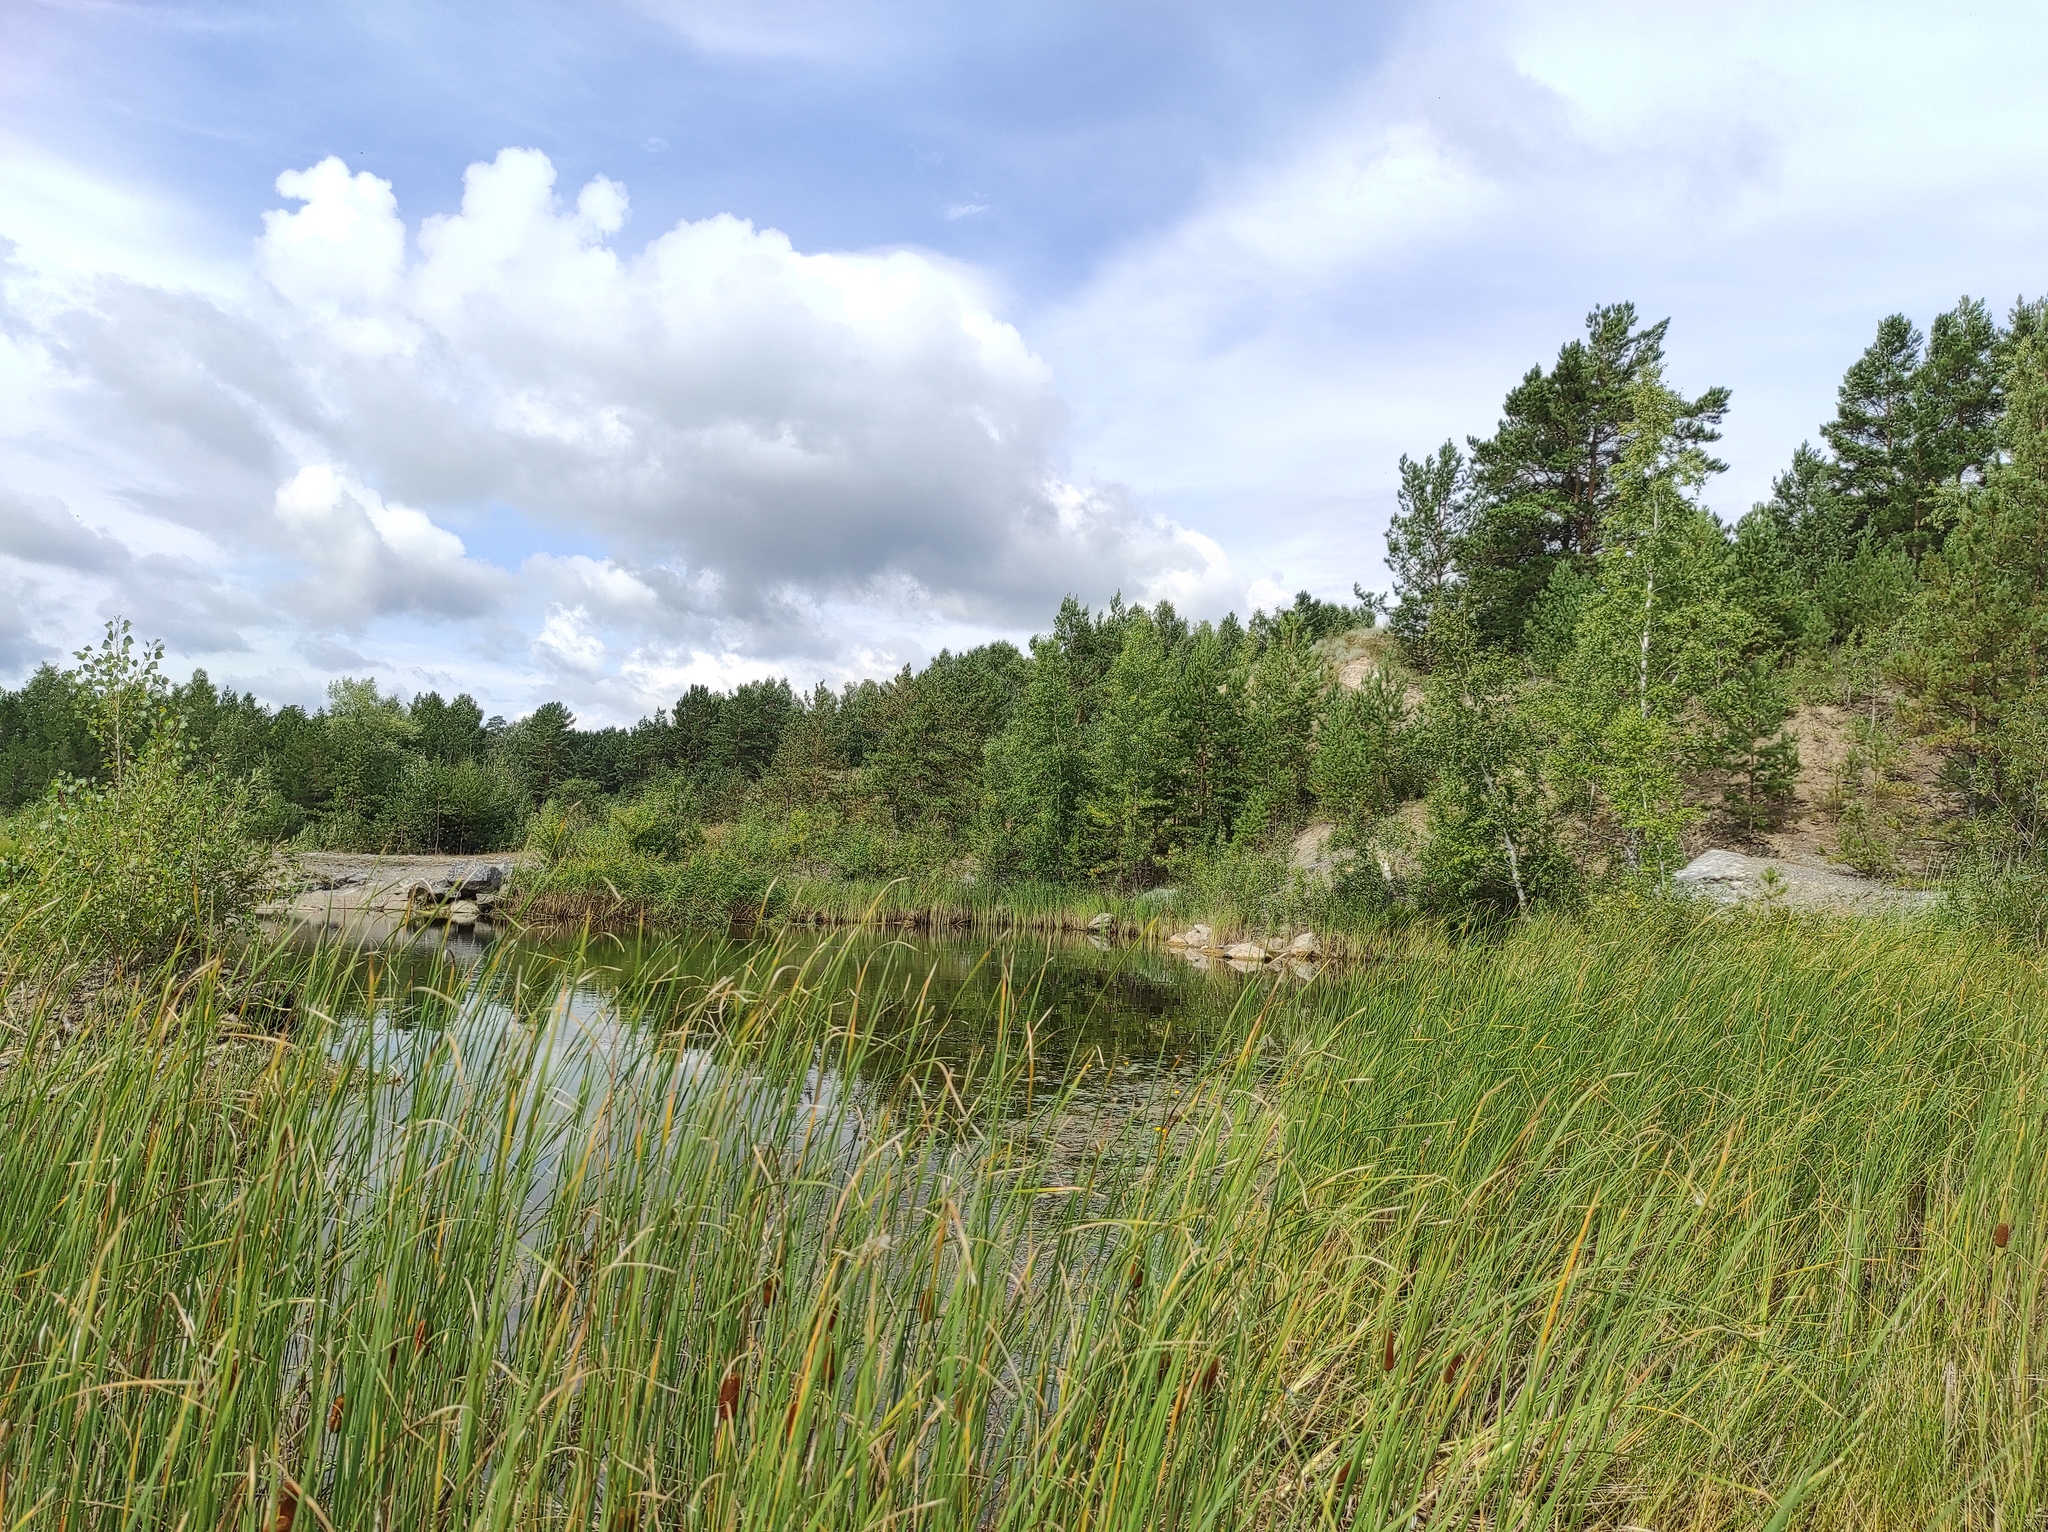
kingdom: Plantae
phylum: Tracheophyta
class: Magnoliopsida
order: Fagales
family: Betulaceae
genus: Betula
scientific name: Betula pendula
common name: Silver birch
